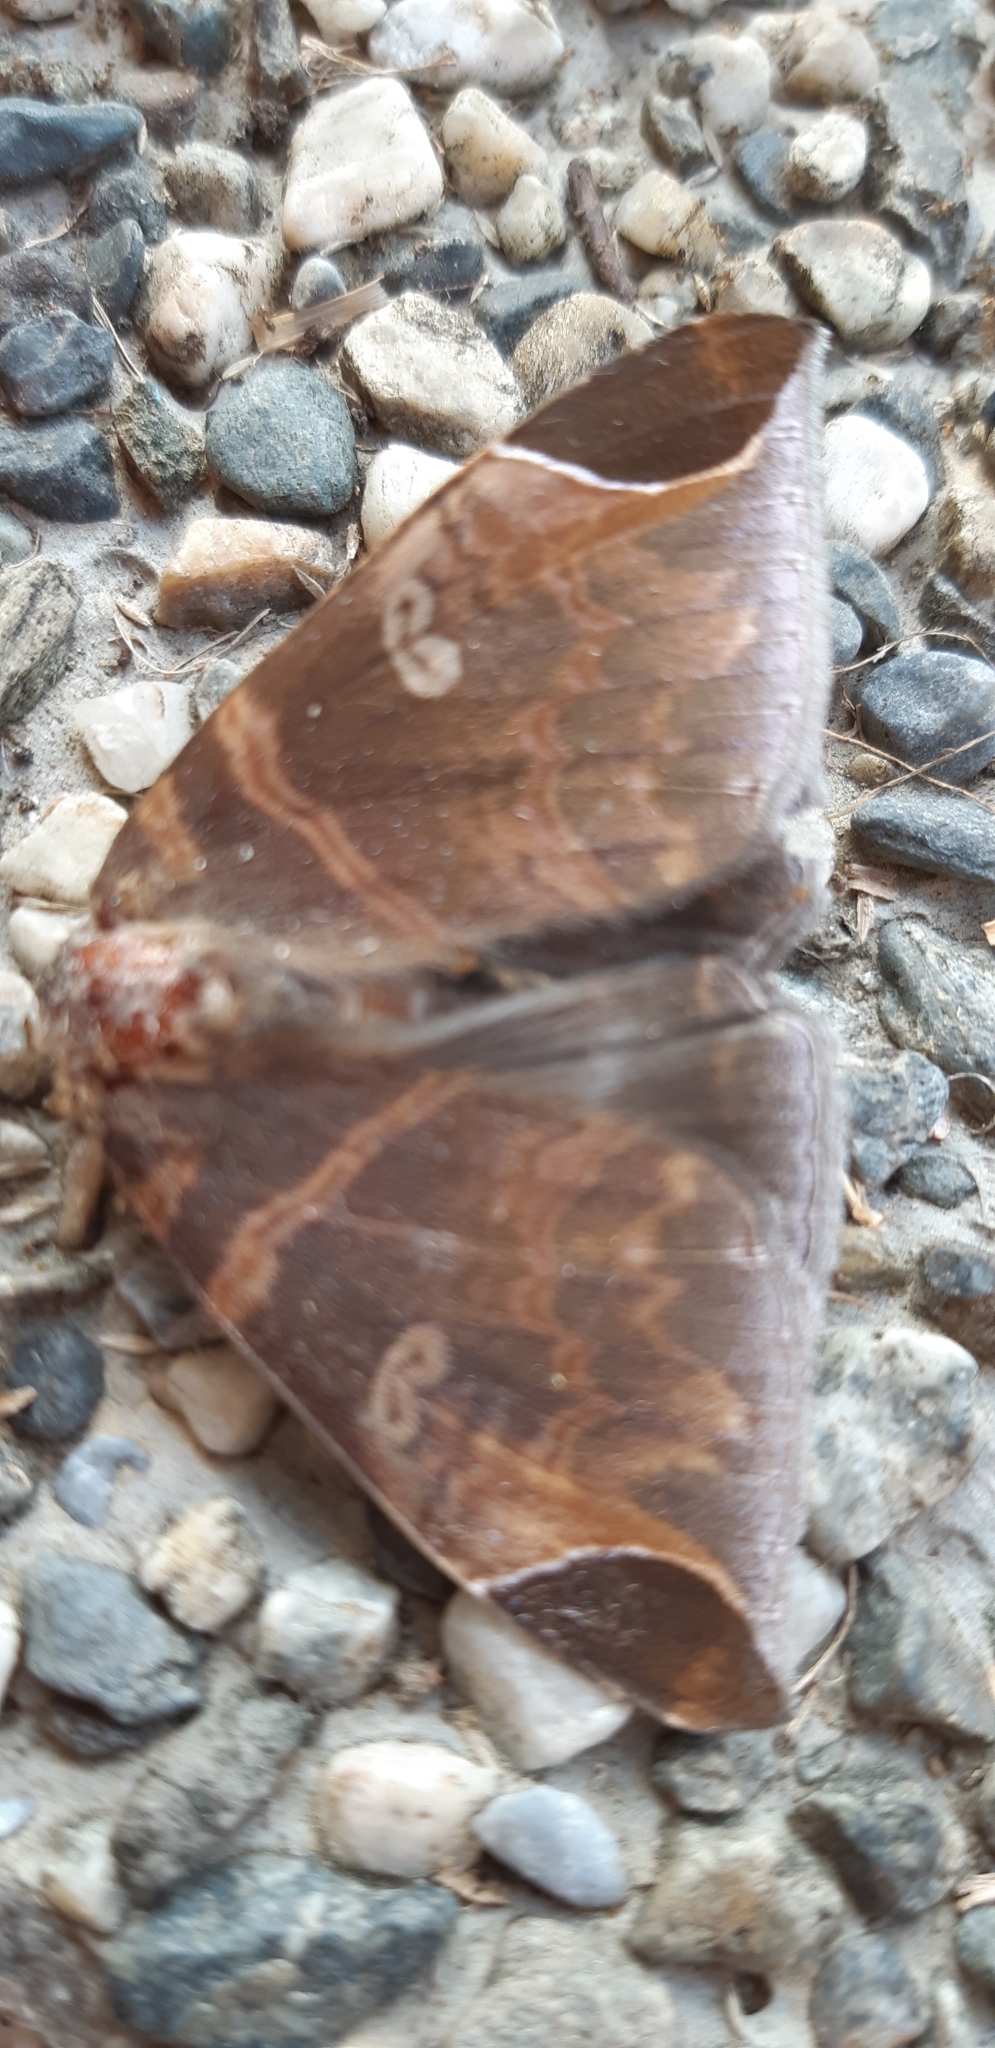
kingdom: Animalia
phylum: Arthropoda
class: Insecta
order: Lepidoptera
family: Erebidae
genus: Pindara
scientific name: Pindara illibata
